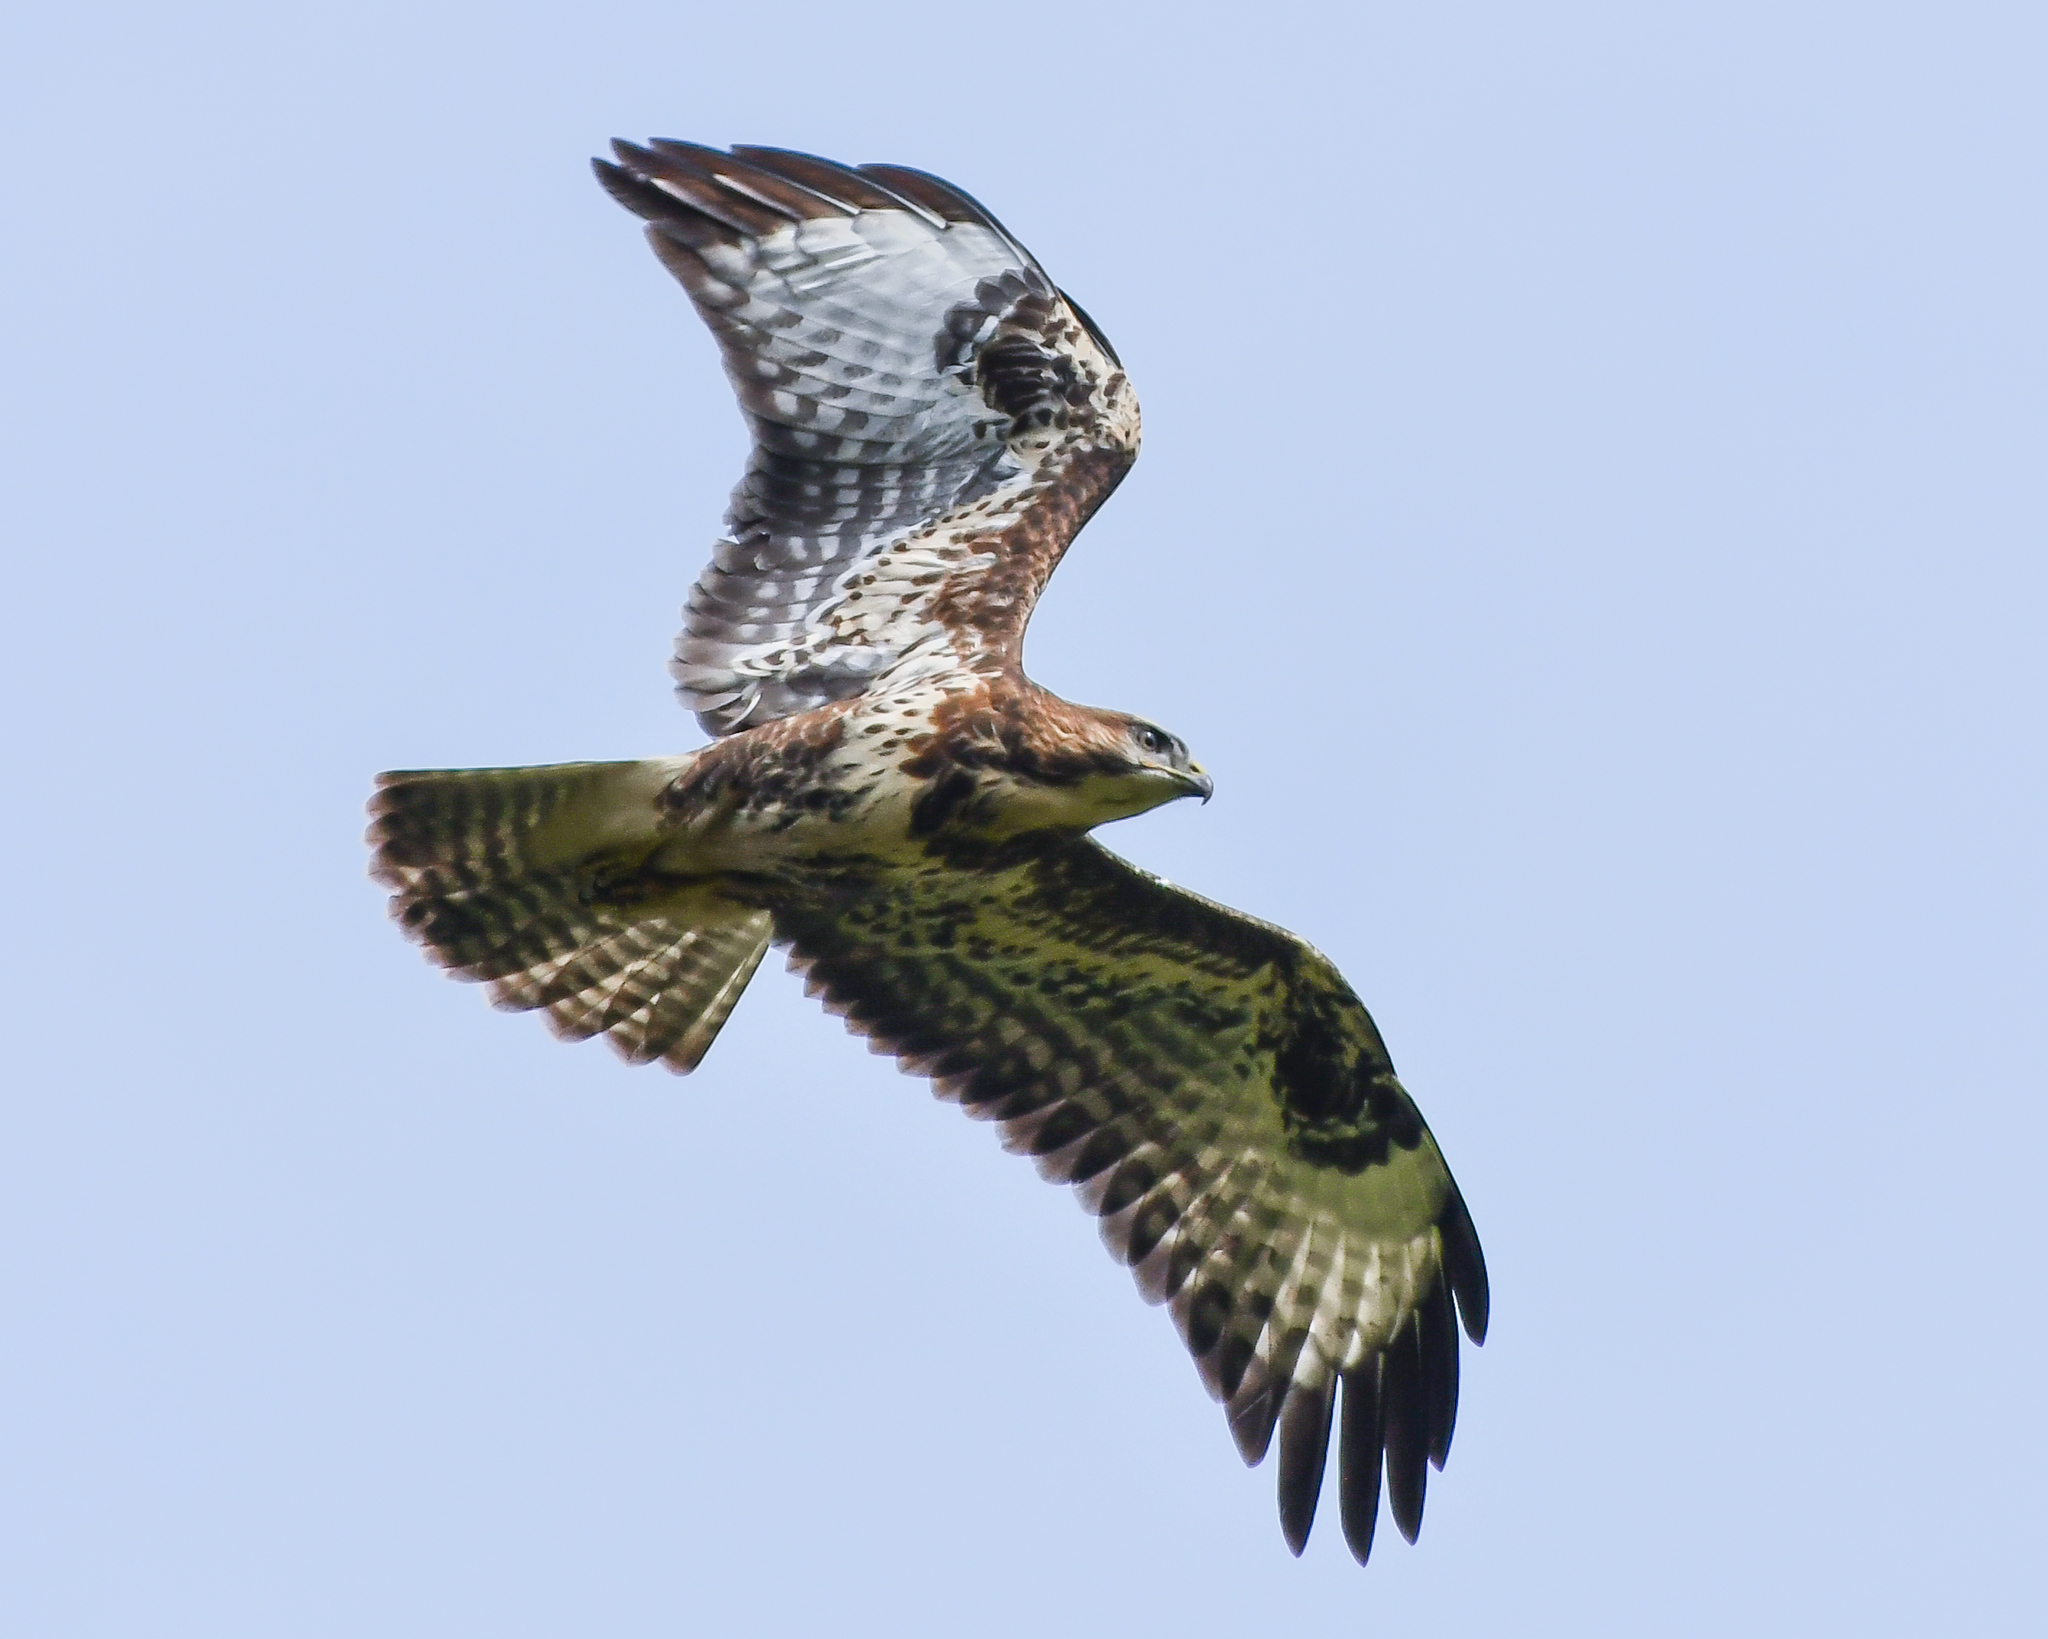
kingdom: Animalia
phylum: Chordata
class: Aves
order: Accipitriformes
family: Accipitridae
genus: Buteo
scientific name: Buteo buteo
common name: Common buzzard
